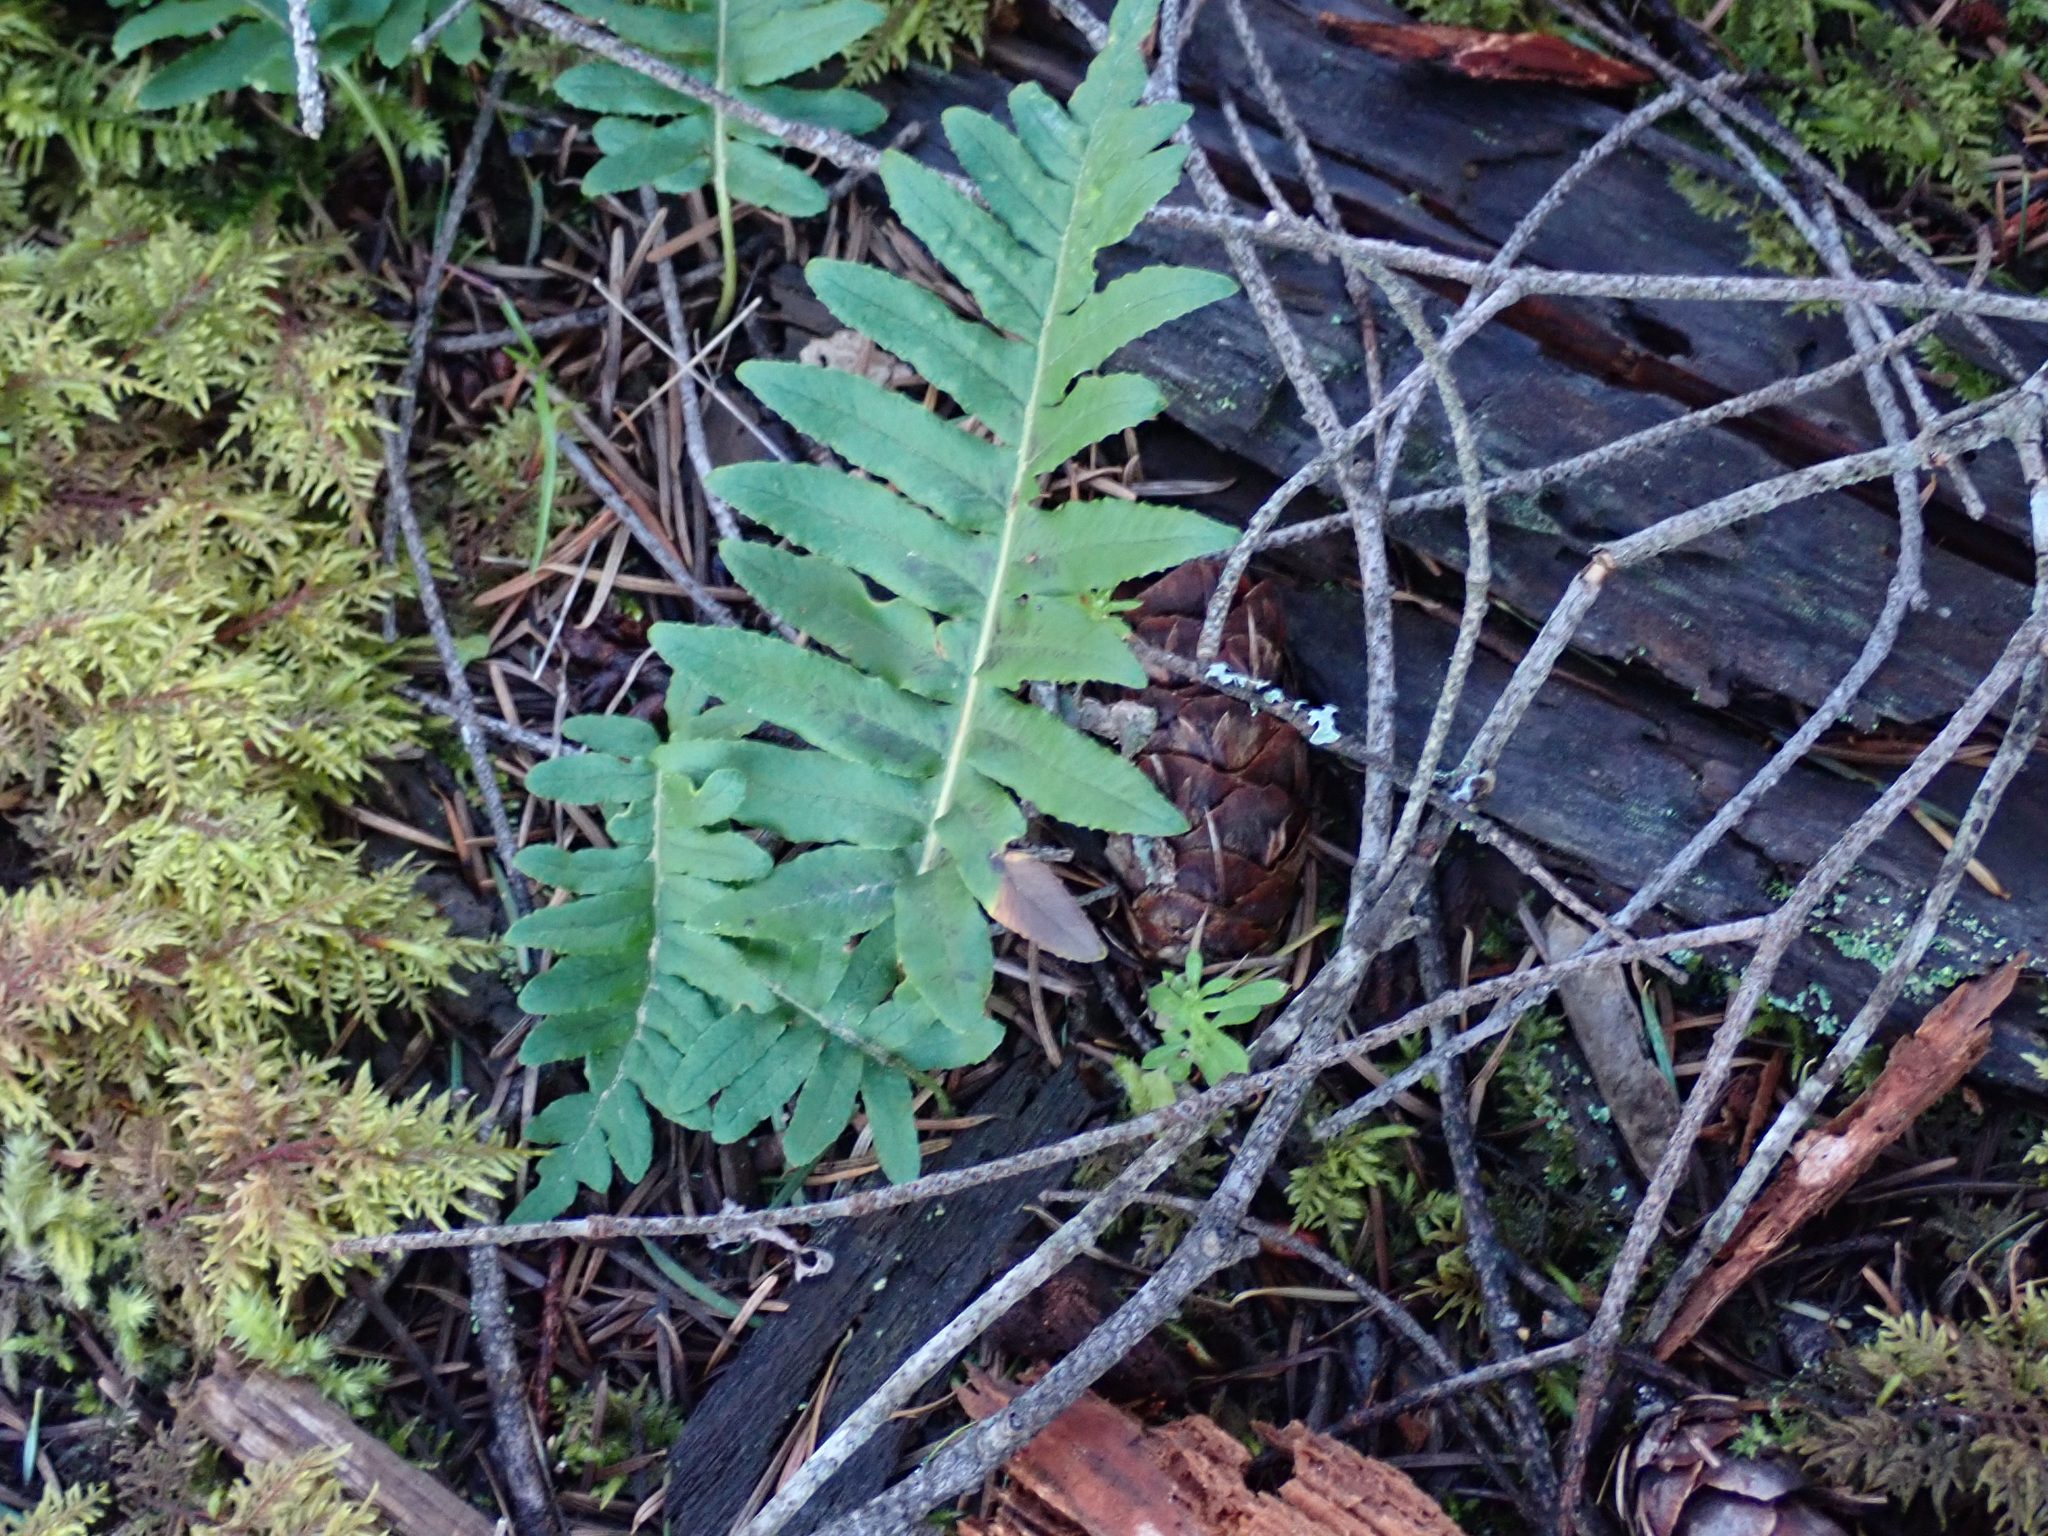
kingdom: Plantae
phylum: Tracheophyta
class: Polypodiopsida
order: Polypodiales
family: Polypodiaceae
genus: Polypodium
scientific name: Polypodium glycyrrhiza
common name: Licorice fern
